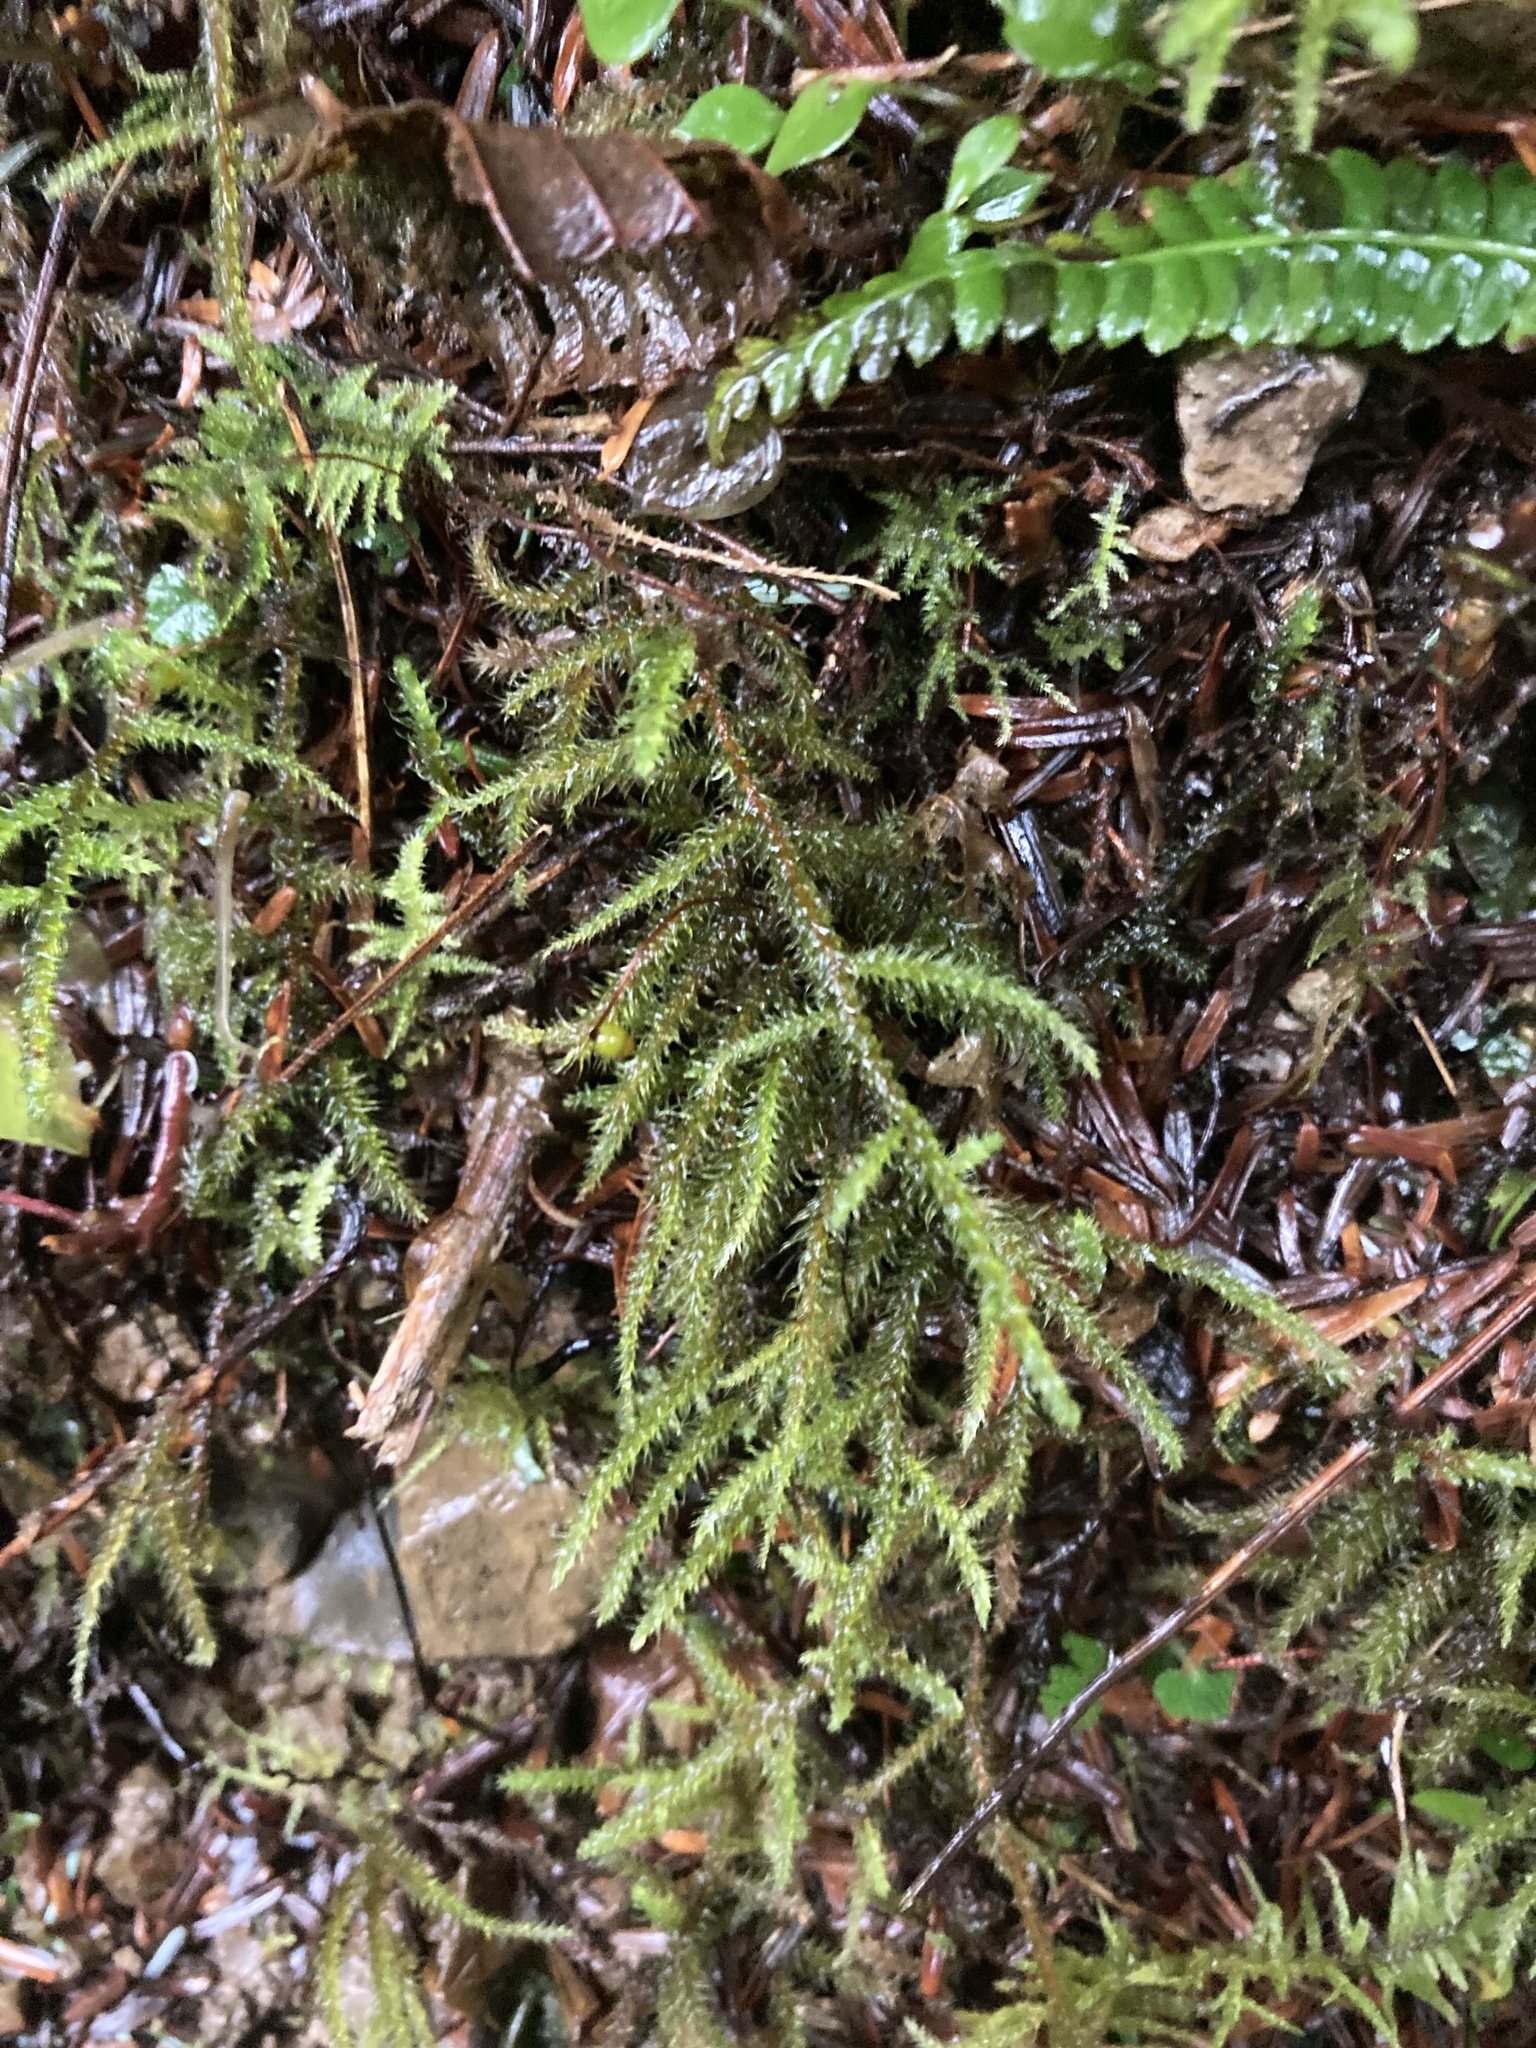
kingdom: Plantae
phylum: Bryophyta
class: Bryopsida
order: Hypnales
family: Hylocomiaceae
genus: Rhytidiadelphus
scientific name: Rhytidiadelphus loreus
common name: Lanky moss
